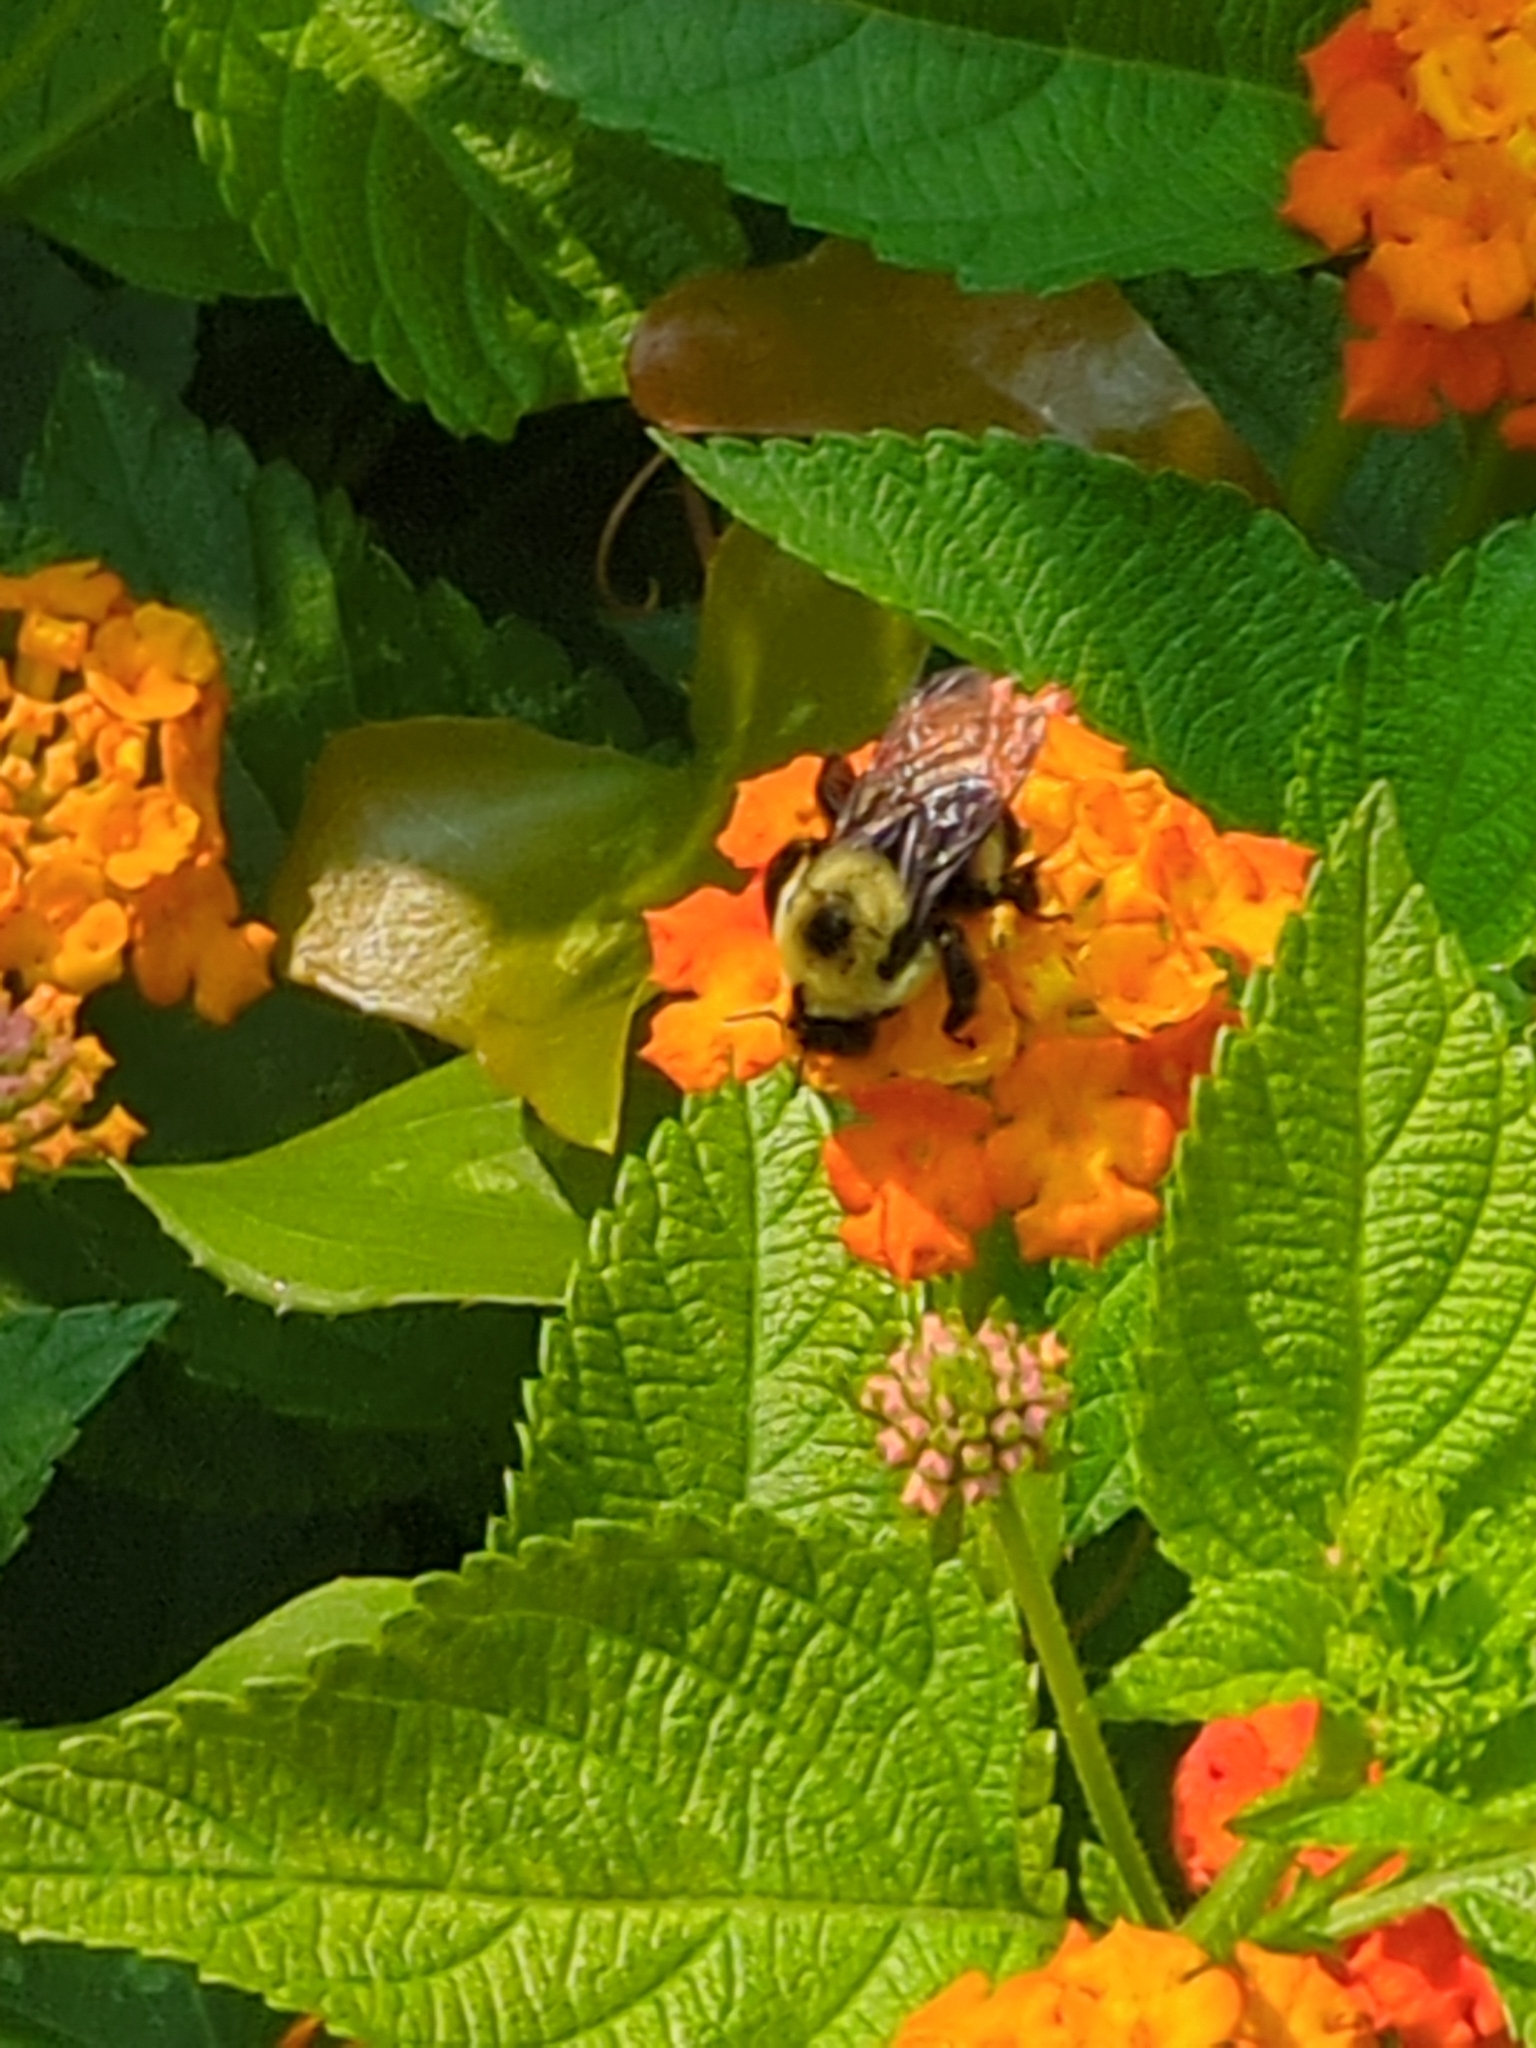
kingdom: Animalia
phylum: Arthropoda
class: Insecta
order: Hymenoptera
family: Apidae
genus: Bombus
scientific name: Bombus griseocollis
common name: Brown-belted bumble bee
